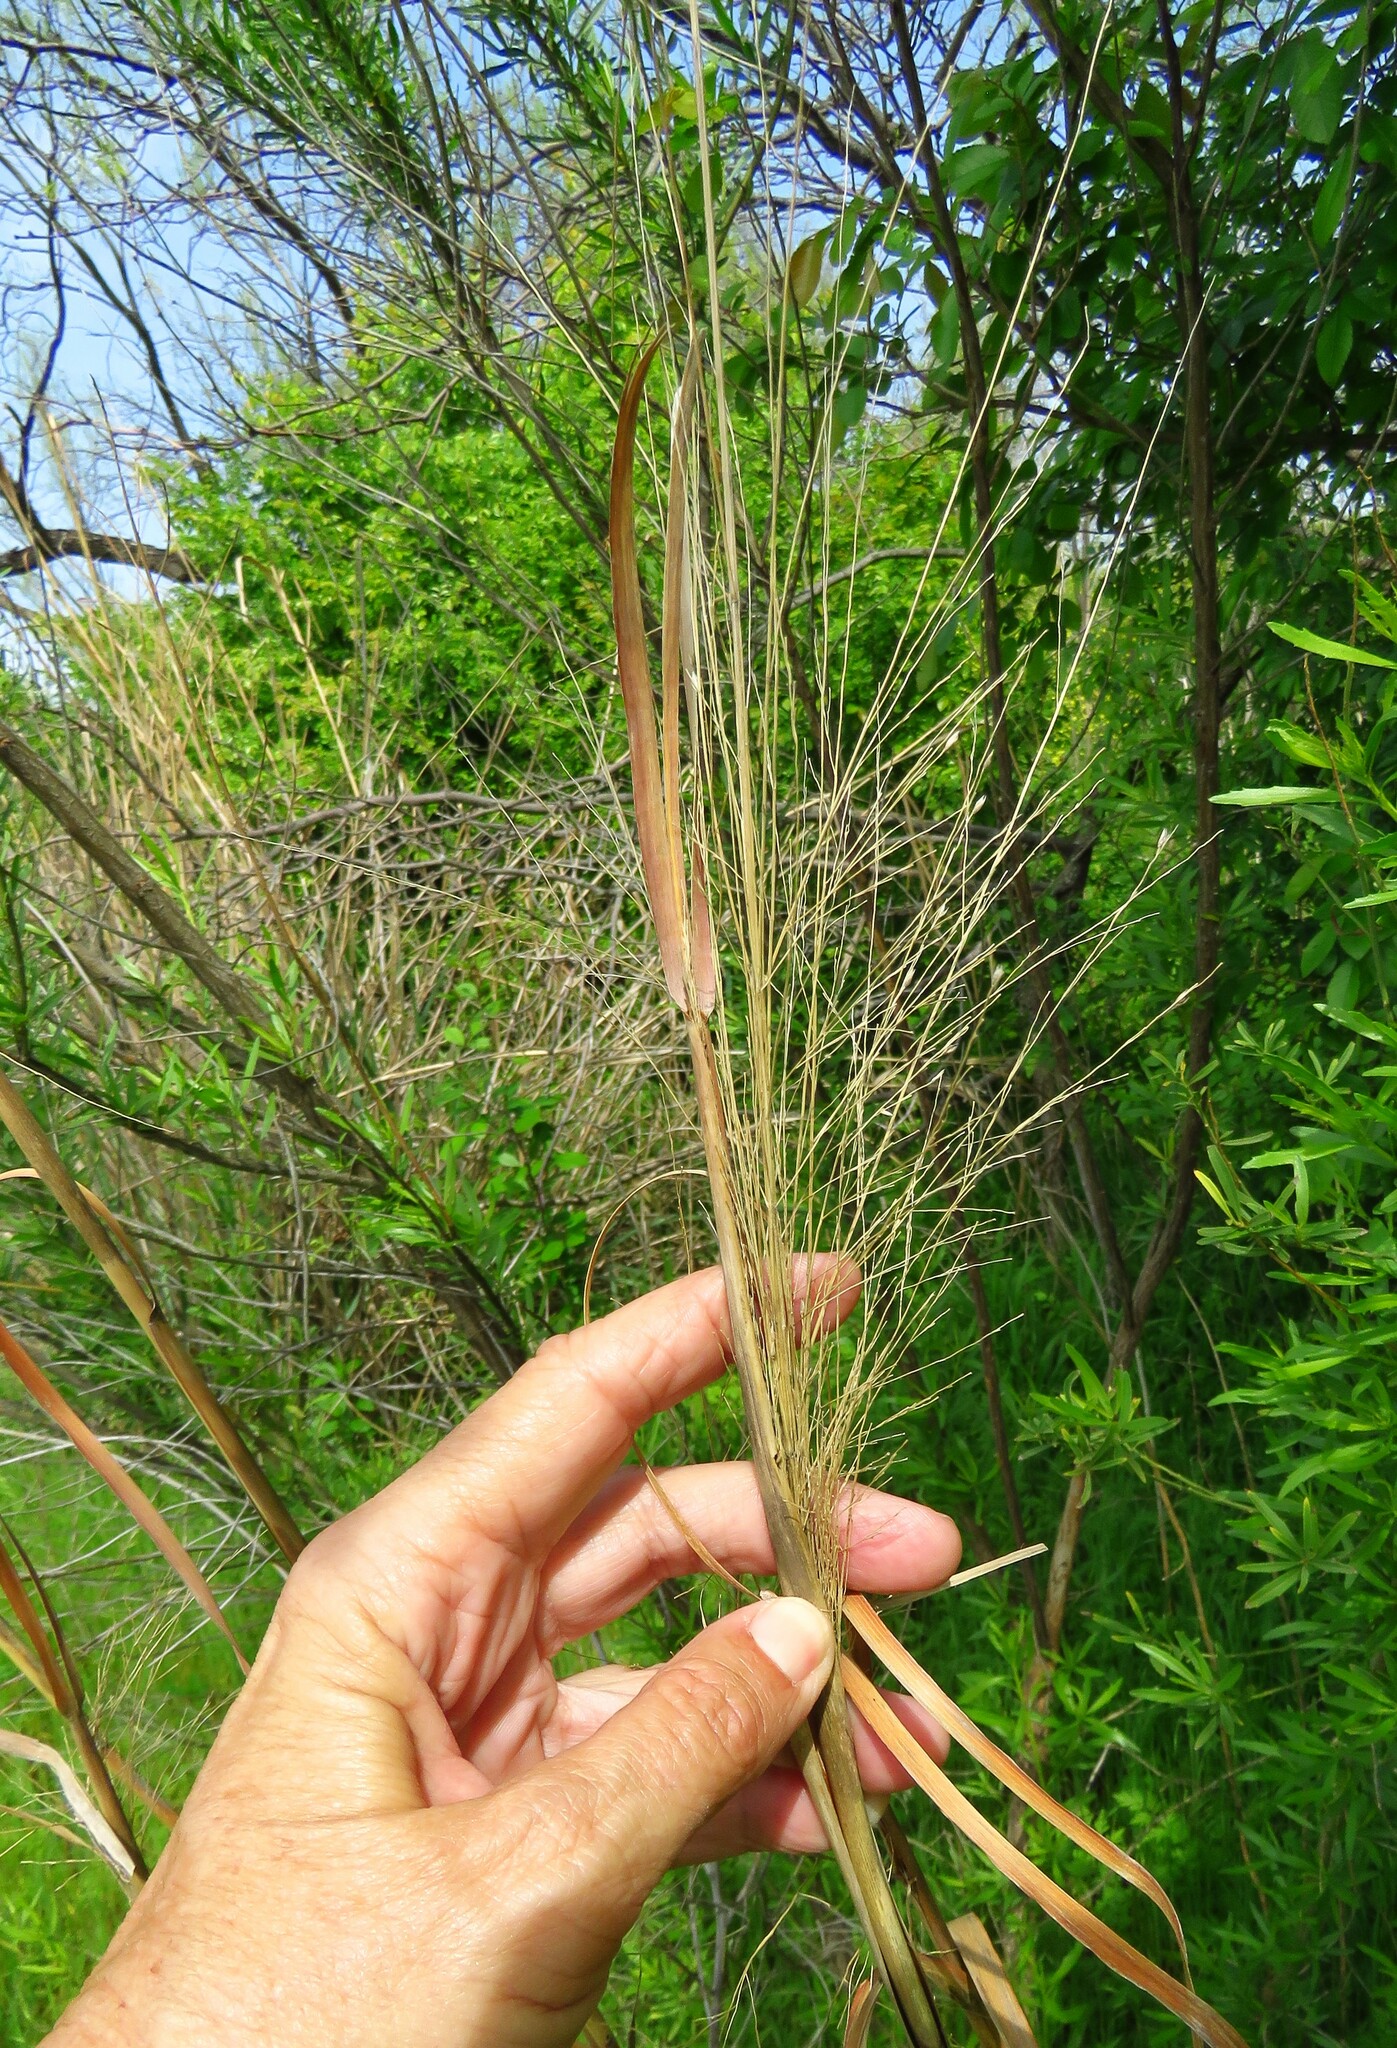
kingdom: Plantae
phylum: Tracheophyta
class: Liliopsida
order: Poales
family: Poaceae
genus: Panicum
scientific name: Panicum virgatum
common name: Switchgrass
